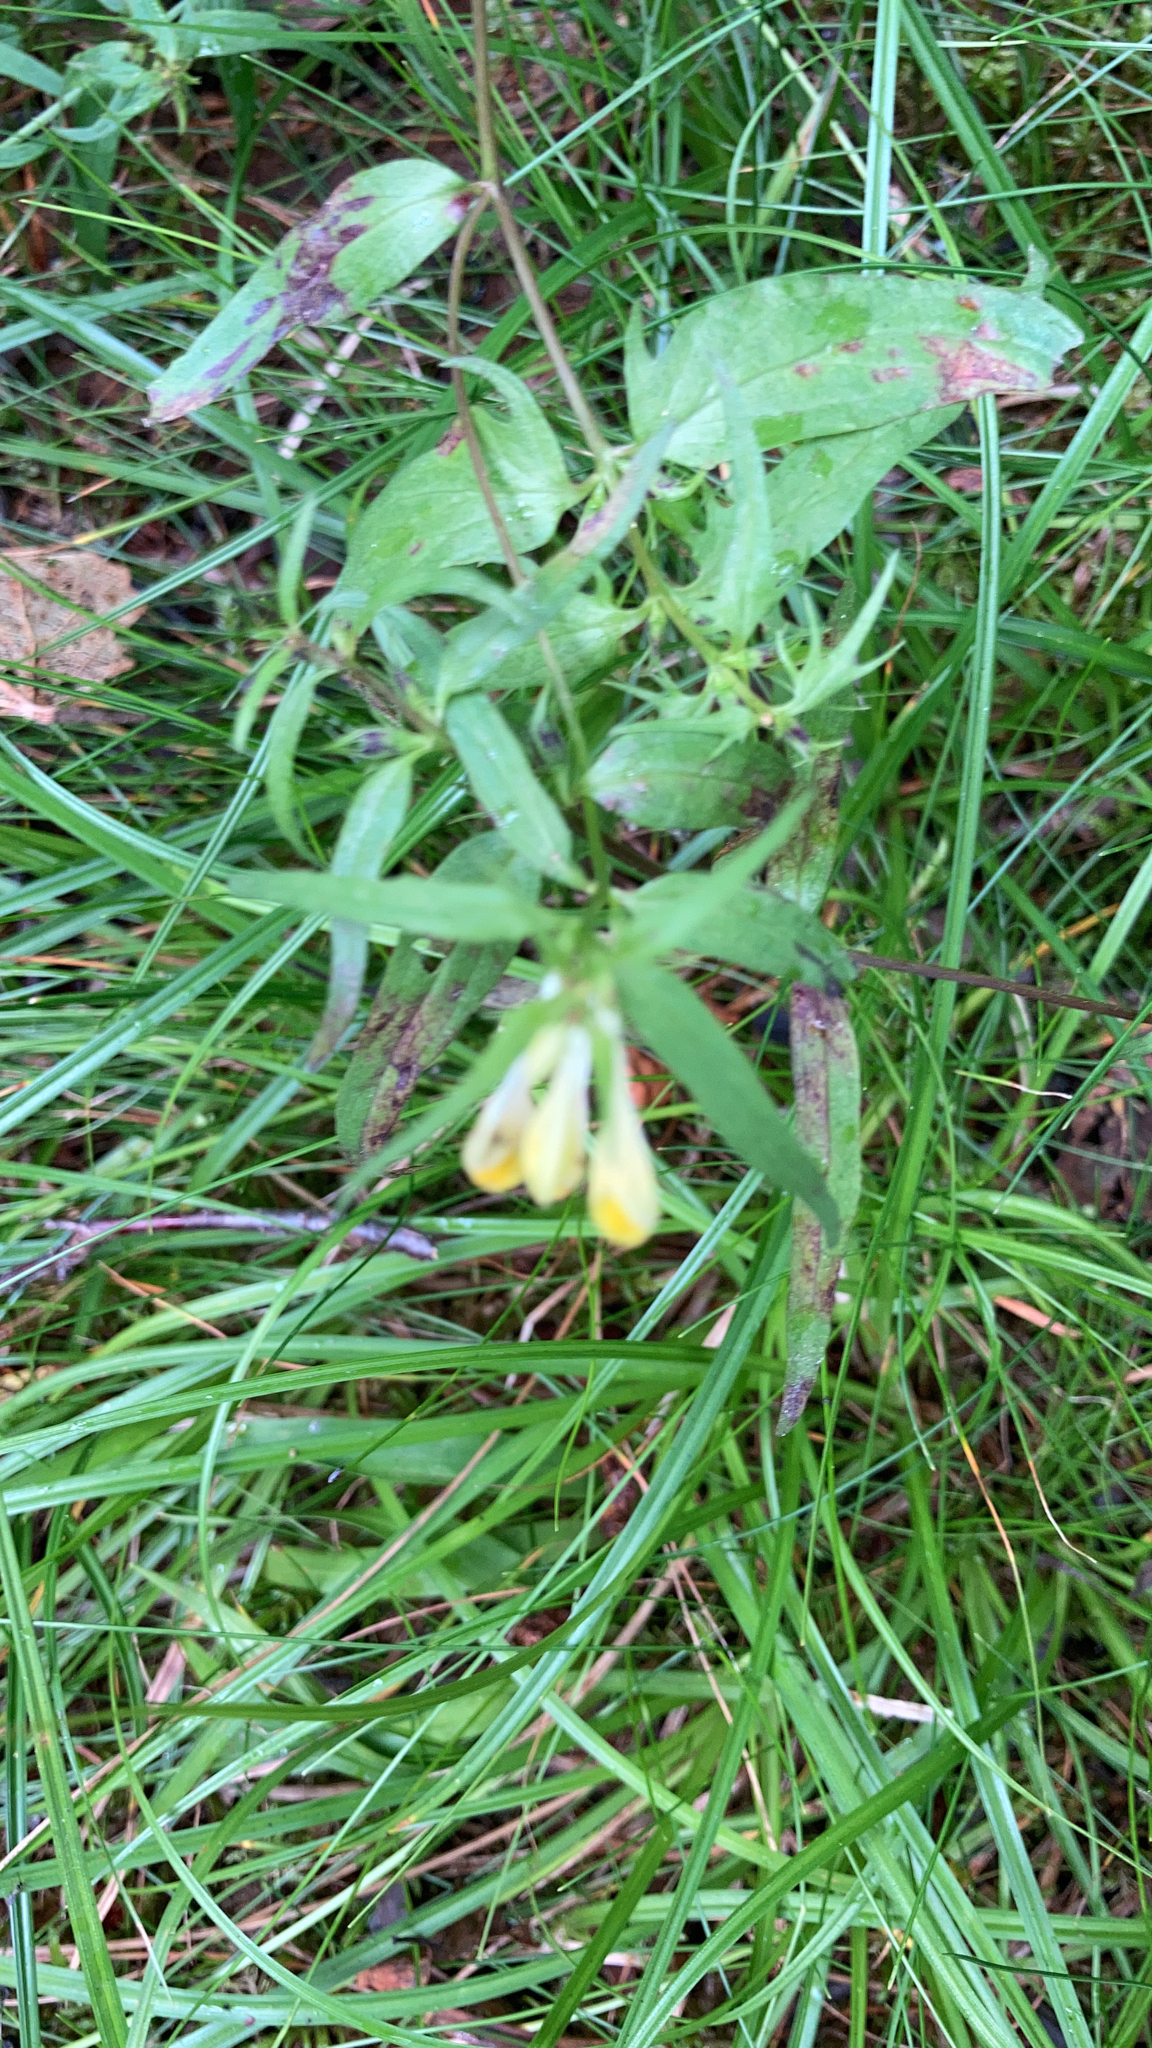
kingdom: Plantae
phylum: Tracheophyta
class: Magnoliopsida
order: Lamiales
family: Orobanchaceae
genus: Melampyrum
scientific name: Melampyrum pratense
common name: Common cow-wheat
